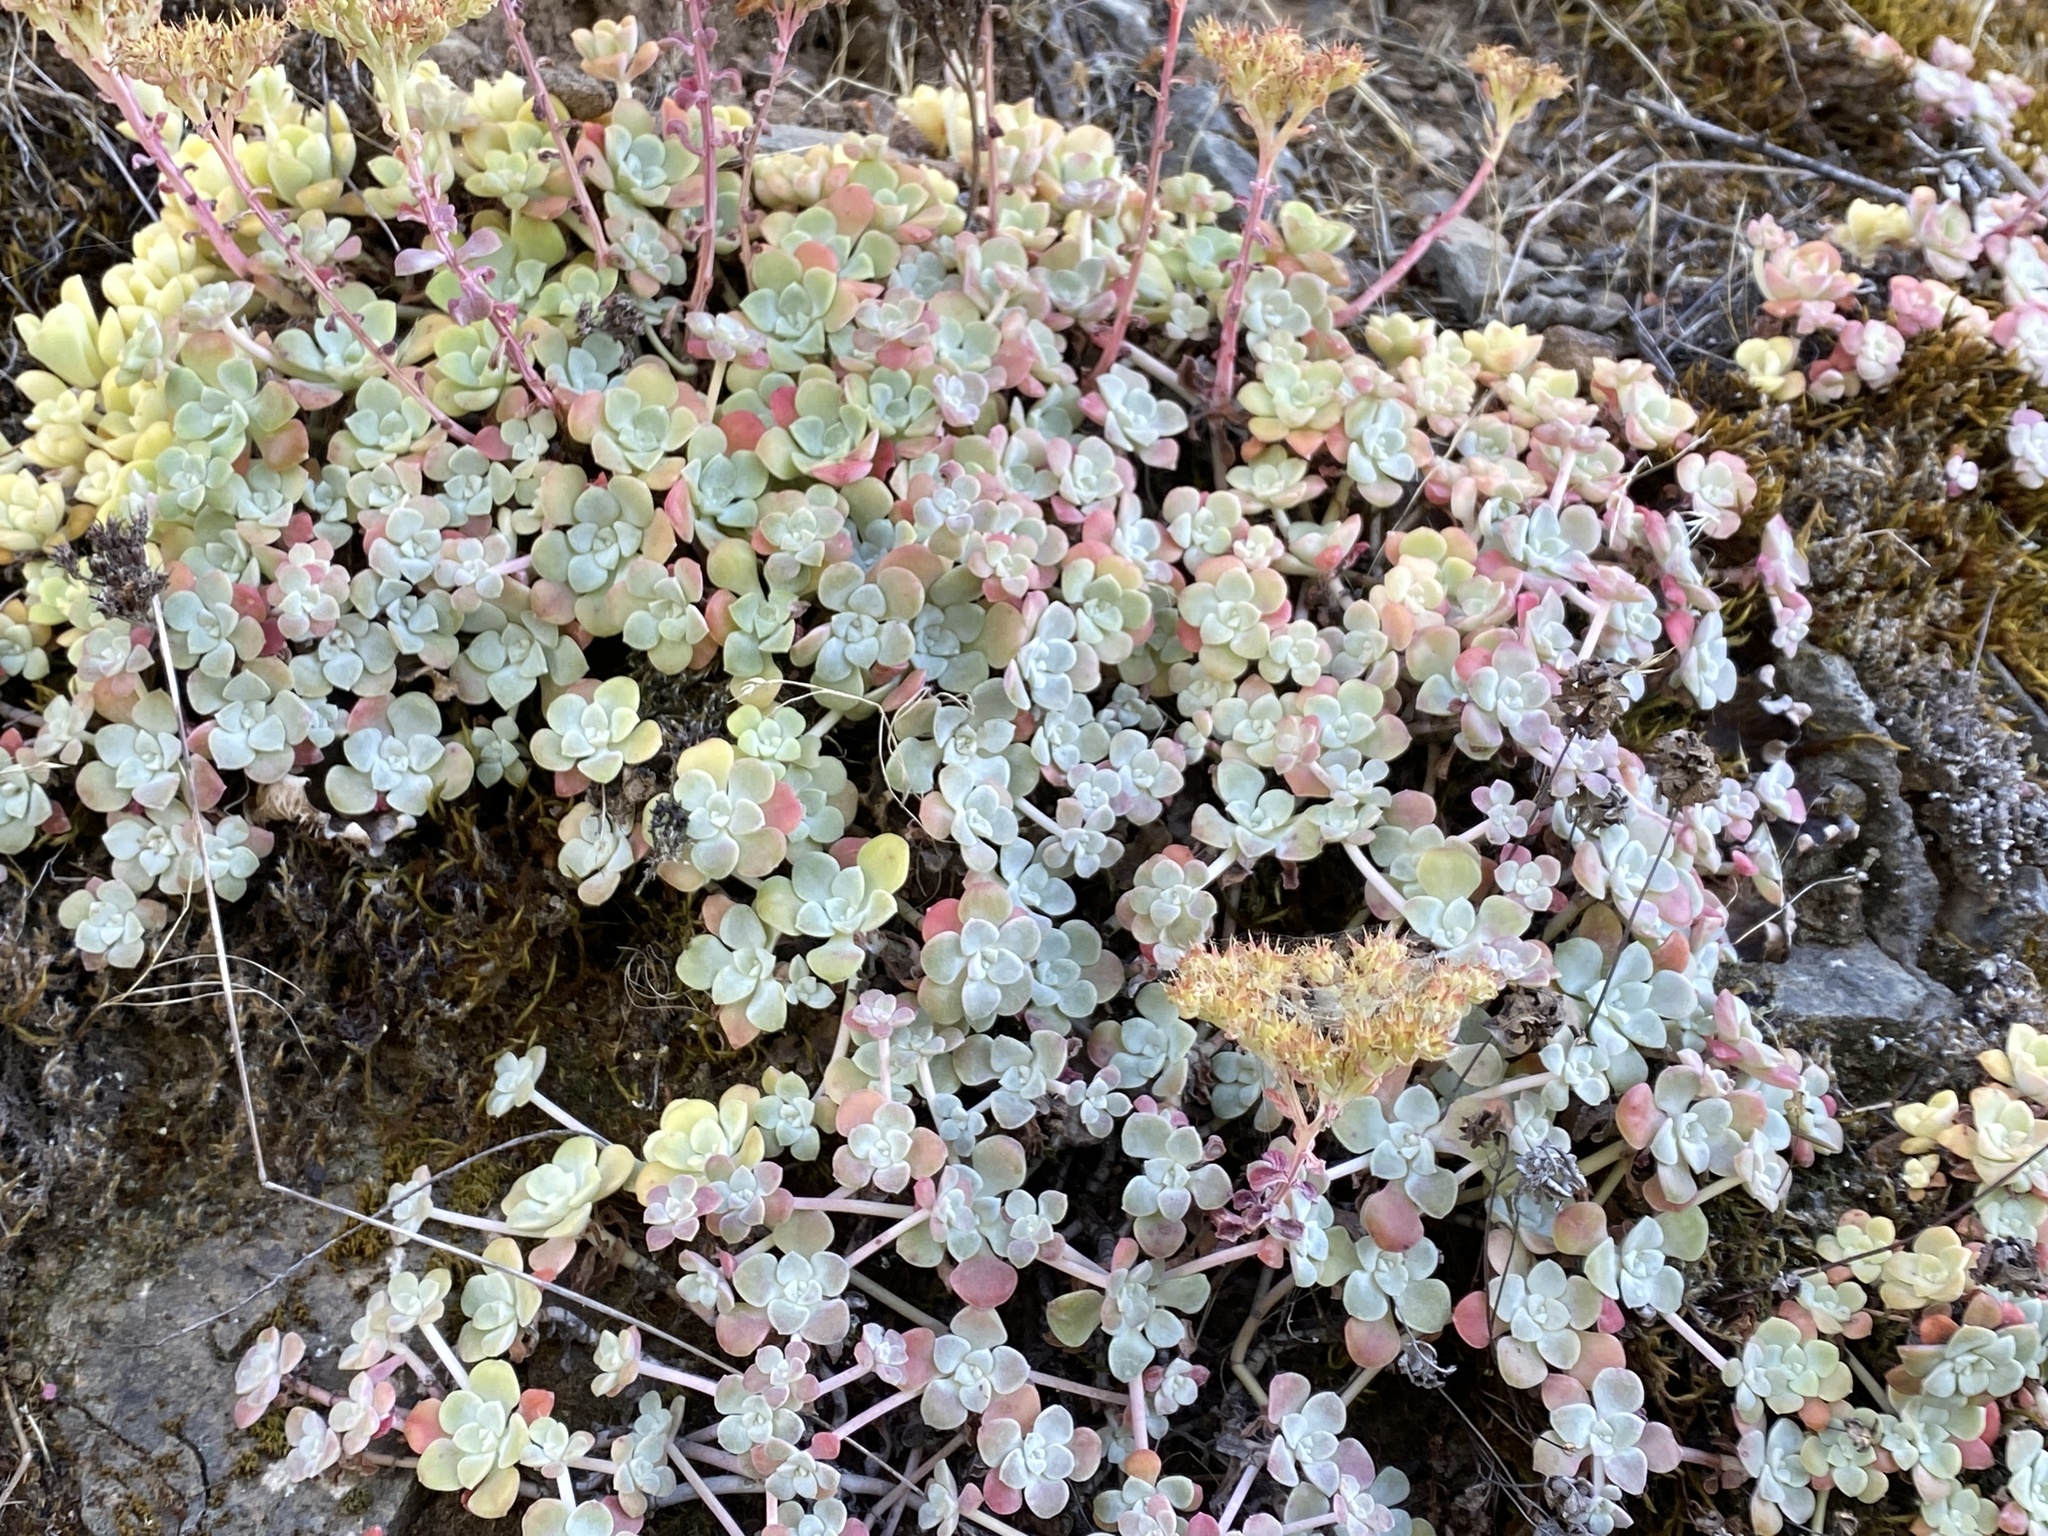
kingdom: Plantae
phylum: Tracheophyta
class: Magnoliopsida
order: Saxifragales
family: Crassulaceae
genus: Sedum
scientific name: Sedum spathulifolium
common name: Colorado stonecrop
